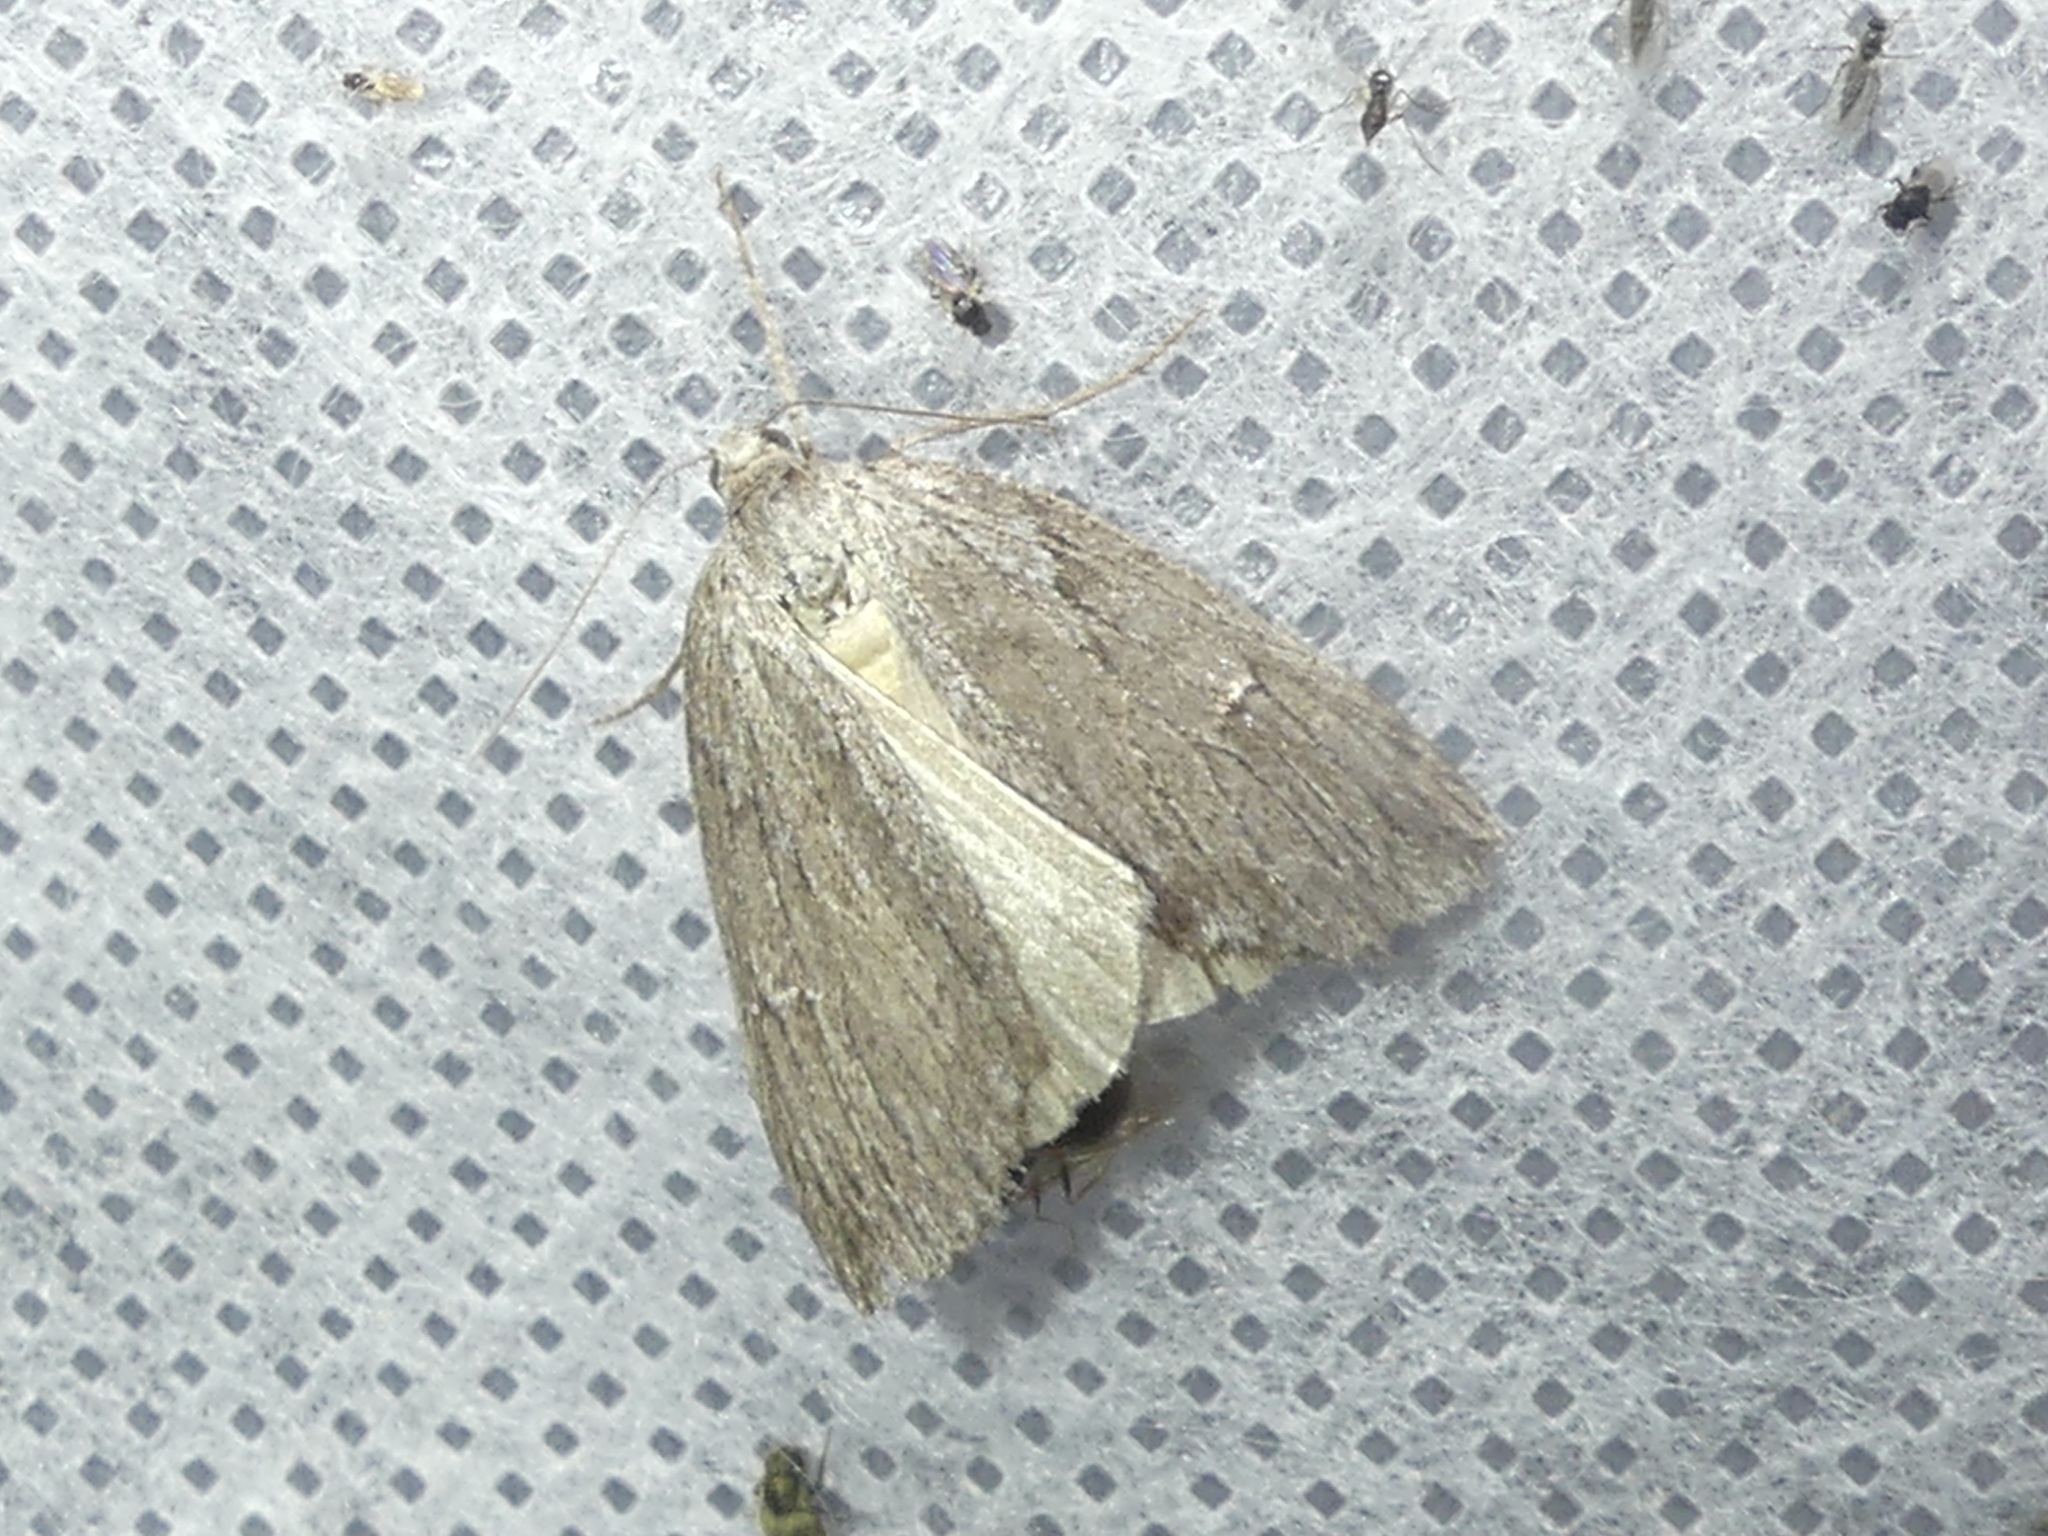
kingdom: Animalia
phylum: Arthropoda
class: Insecta
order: Lepidoptera
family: Geometridae
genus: Pachycnemia
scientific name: Pachycnemia hippocastanaria
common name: Horse chestnut
